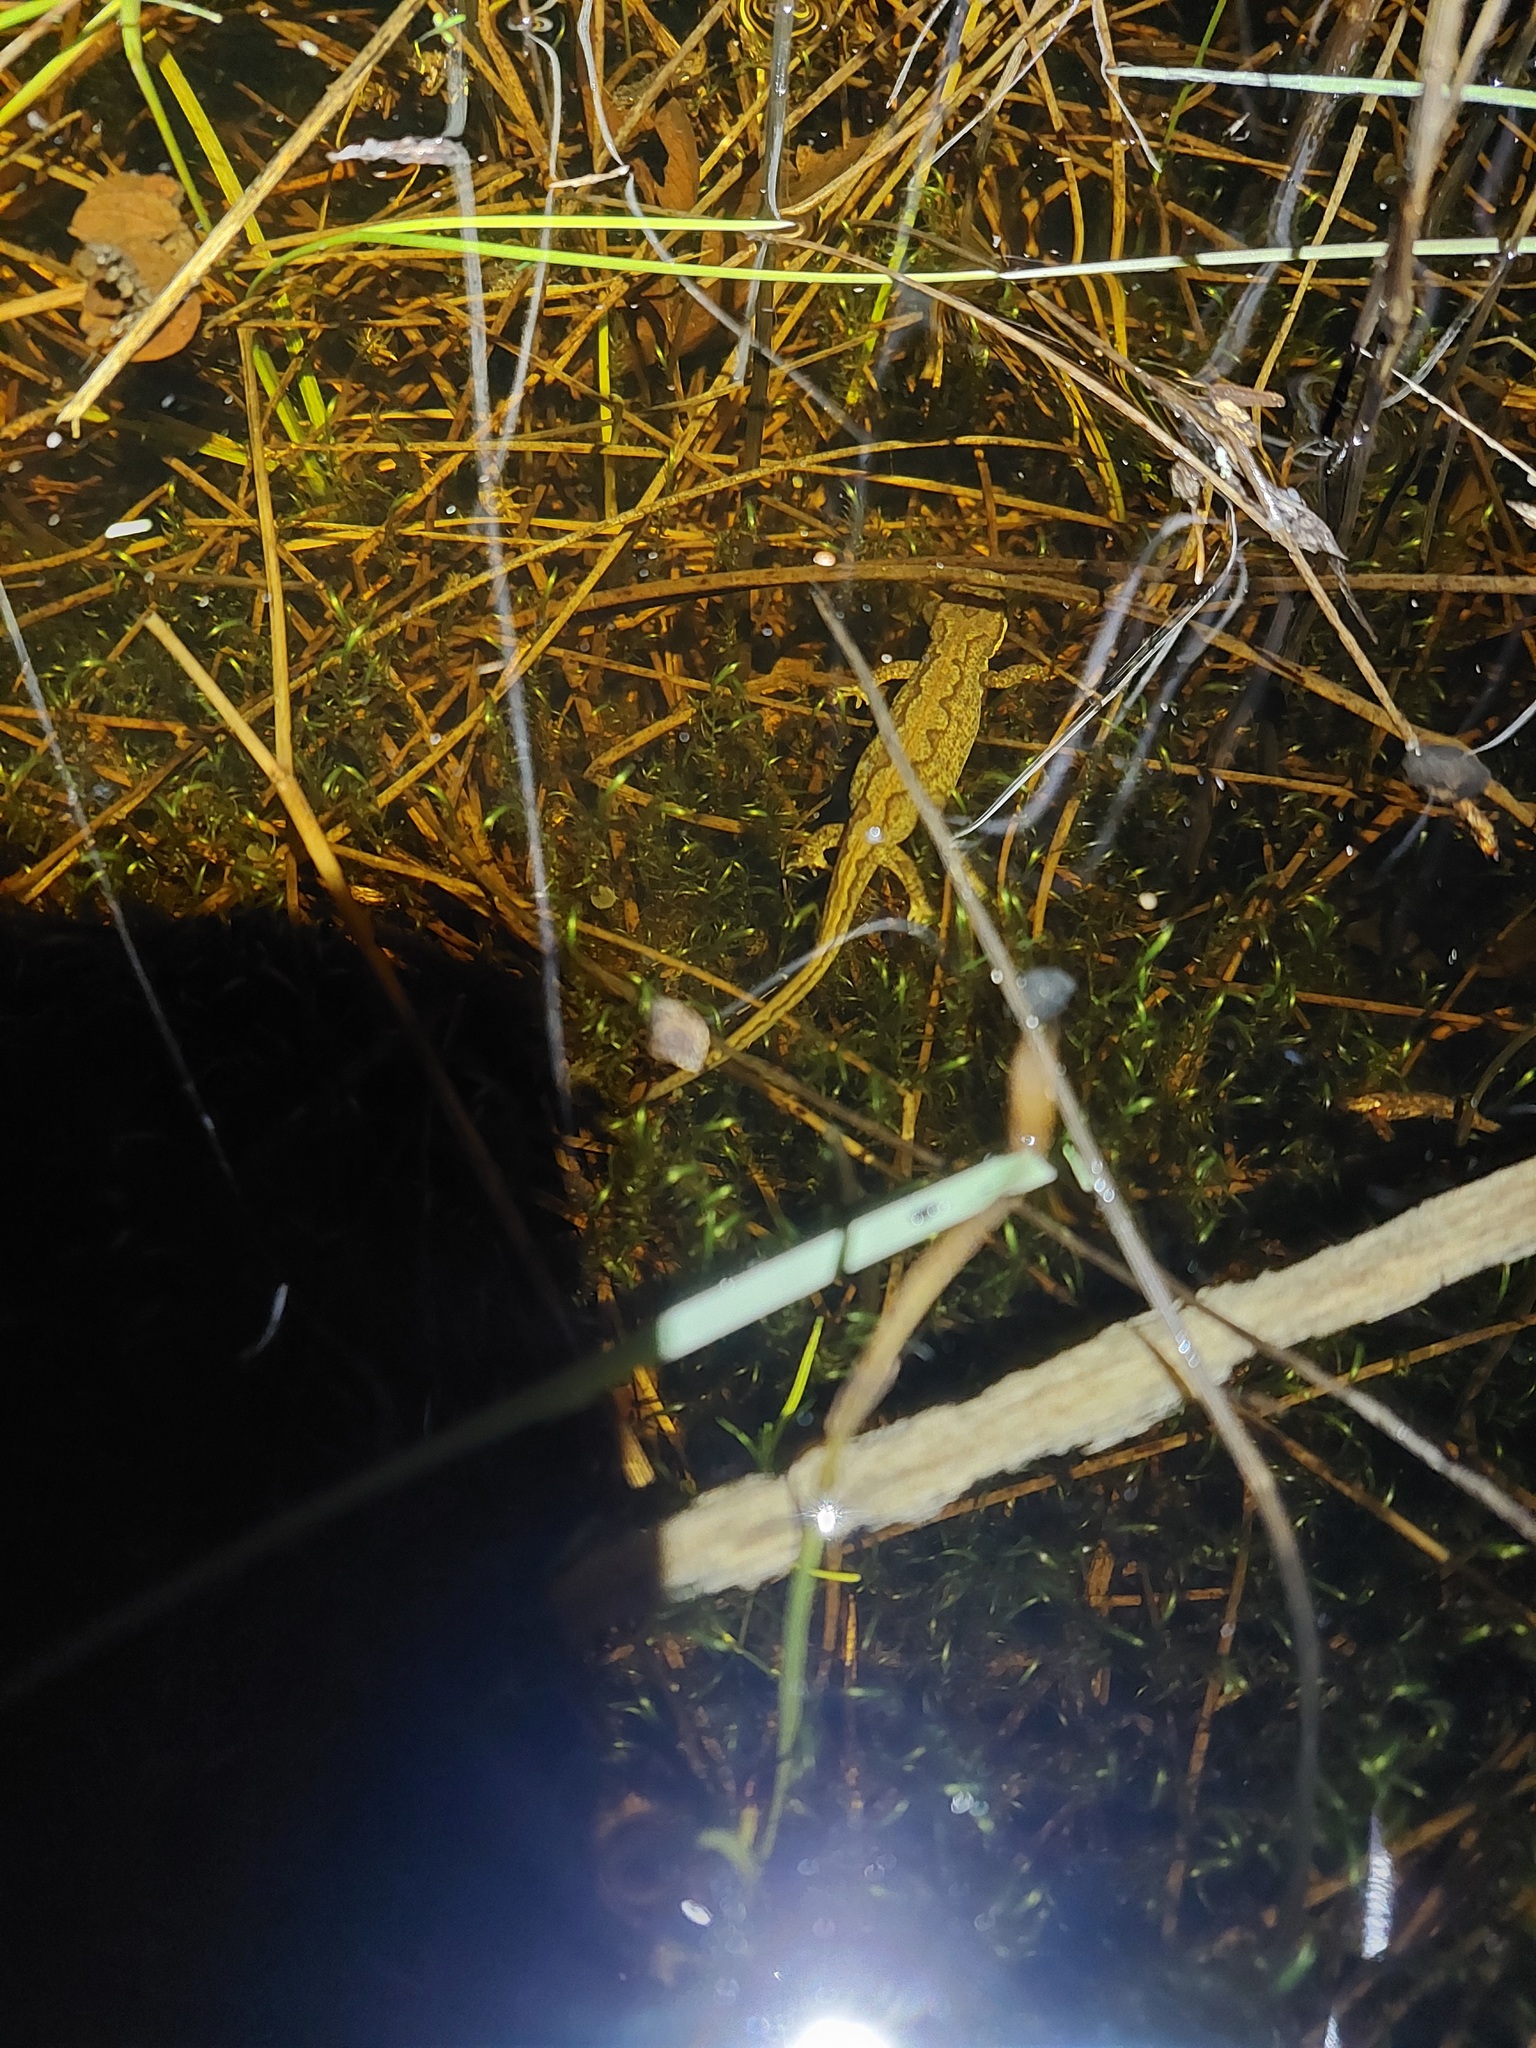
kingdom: Animalia
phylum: Chordata
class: Amphibia
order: Caudata
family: Salamandridae
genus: Lissotriton
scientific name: Lissotriton helveticus
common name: Palmate newt
